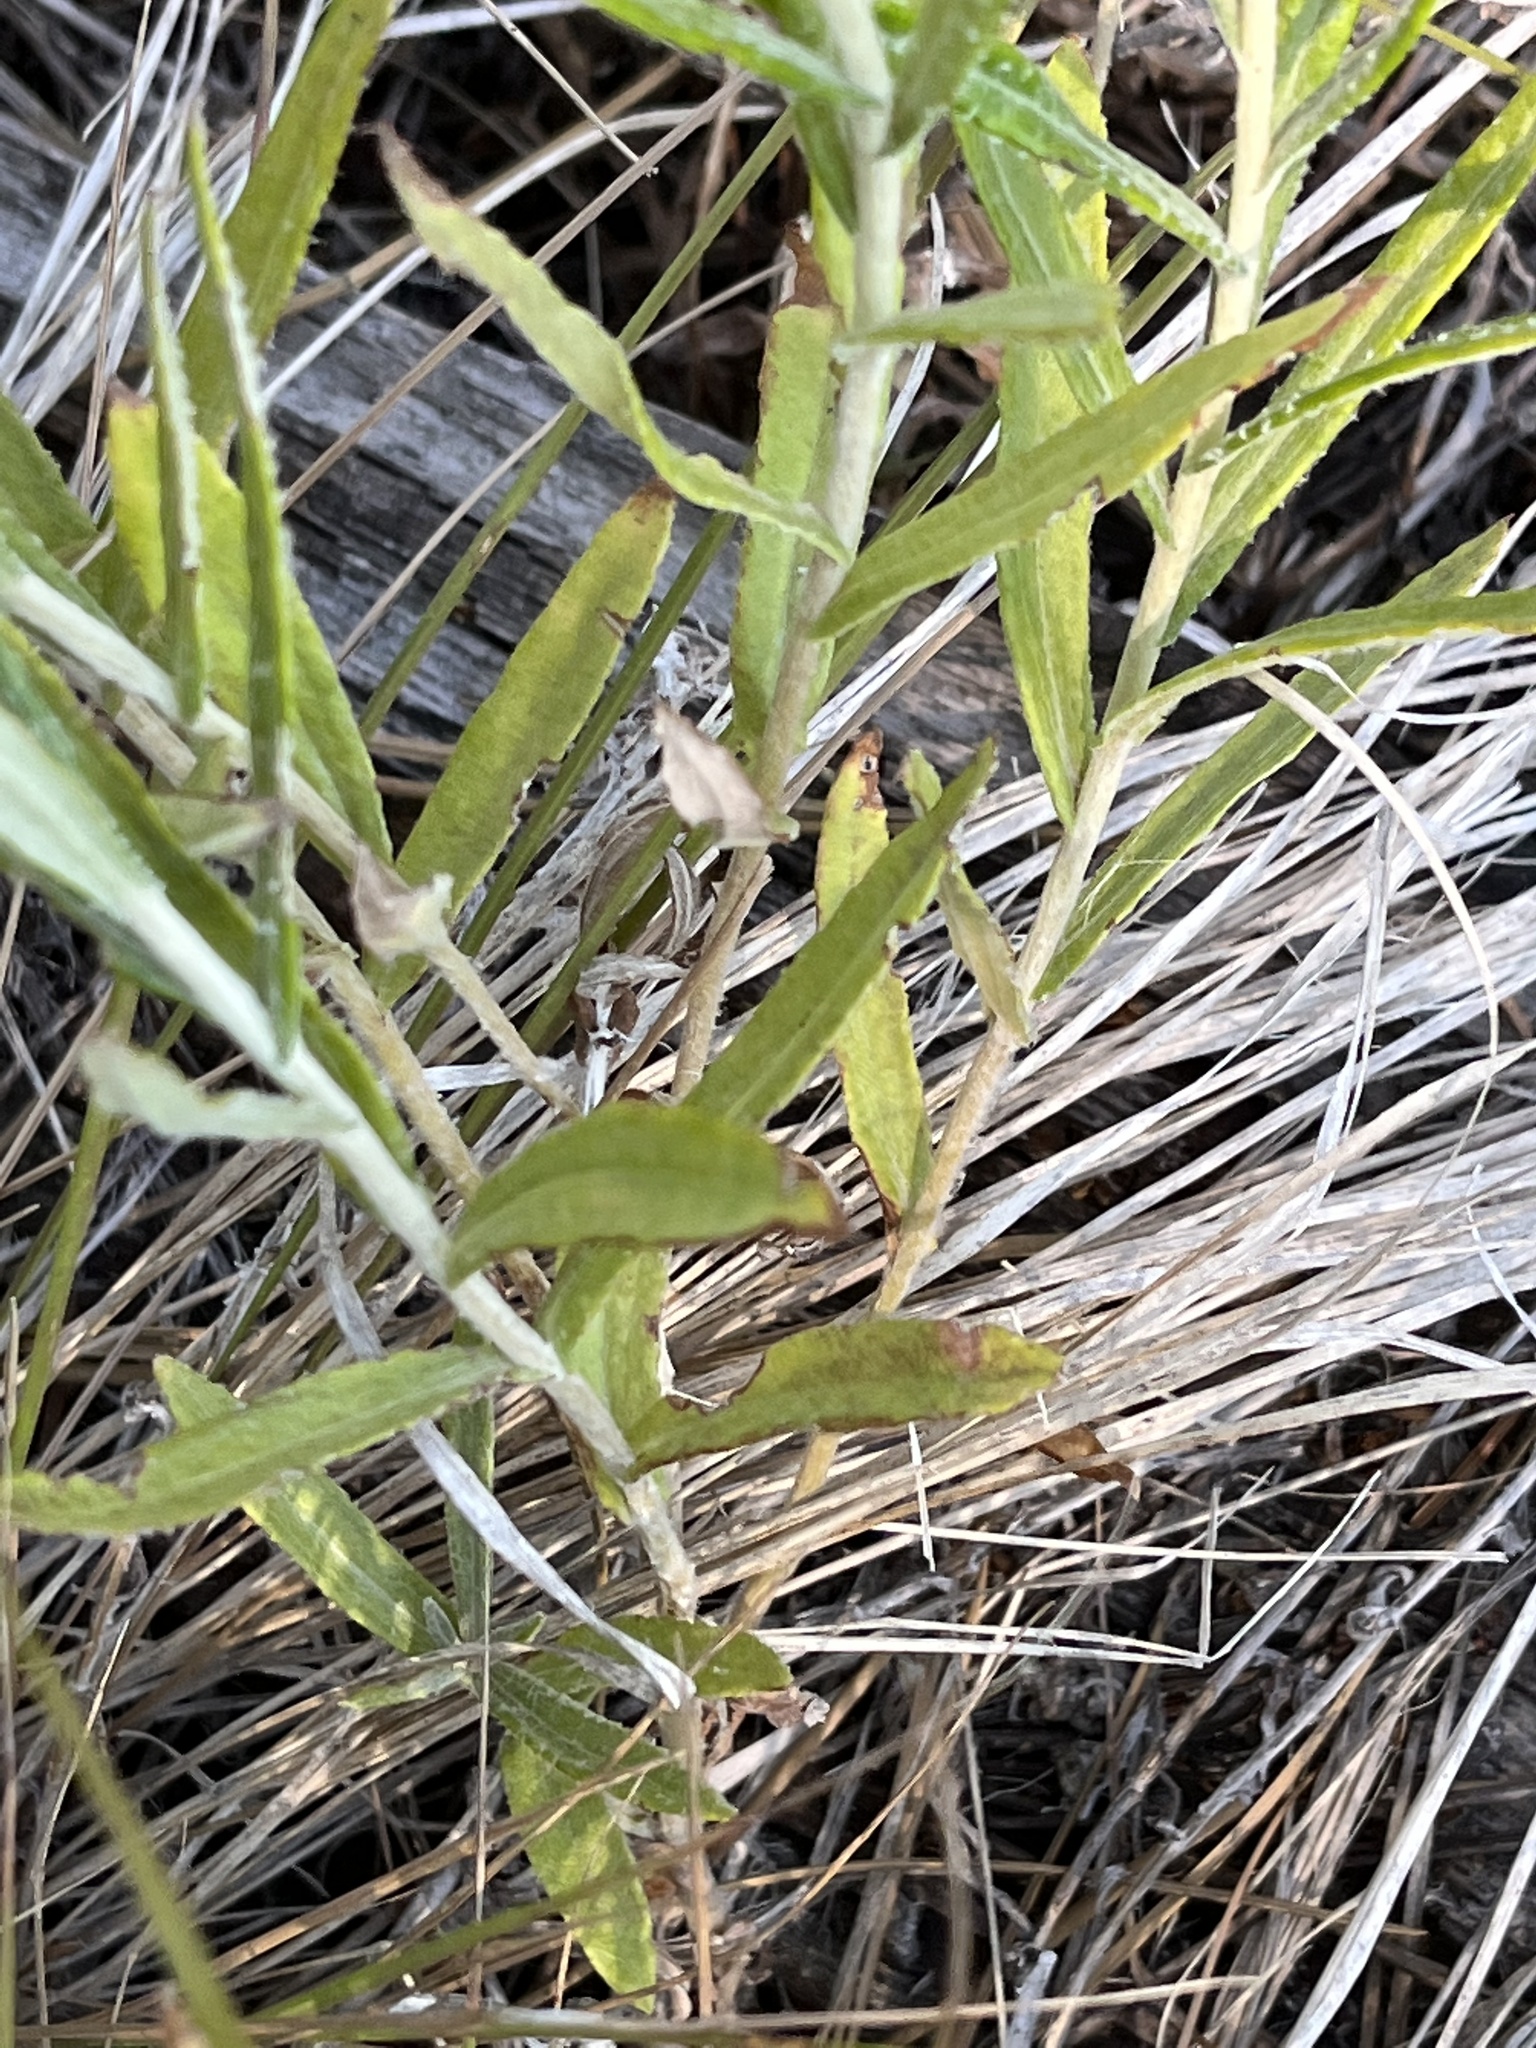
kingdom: Plantae
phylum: Tracheophyta
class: Magnoliopsida
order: Asterales
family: Asteraceae
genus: Anaphalis
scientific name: Anaphalis margaritacea
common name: Pearly everlasting
